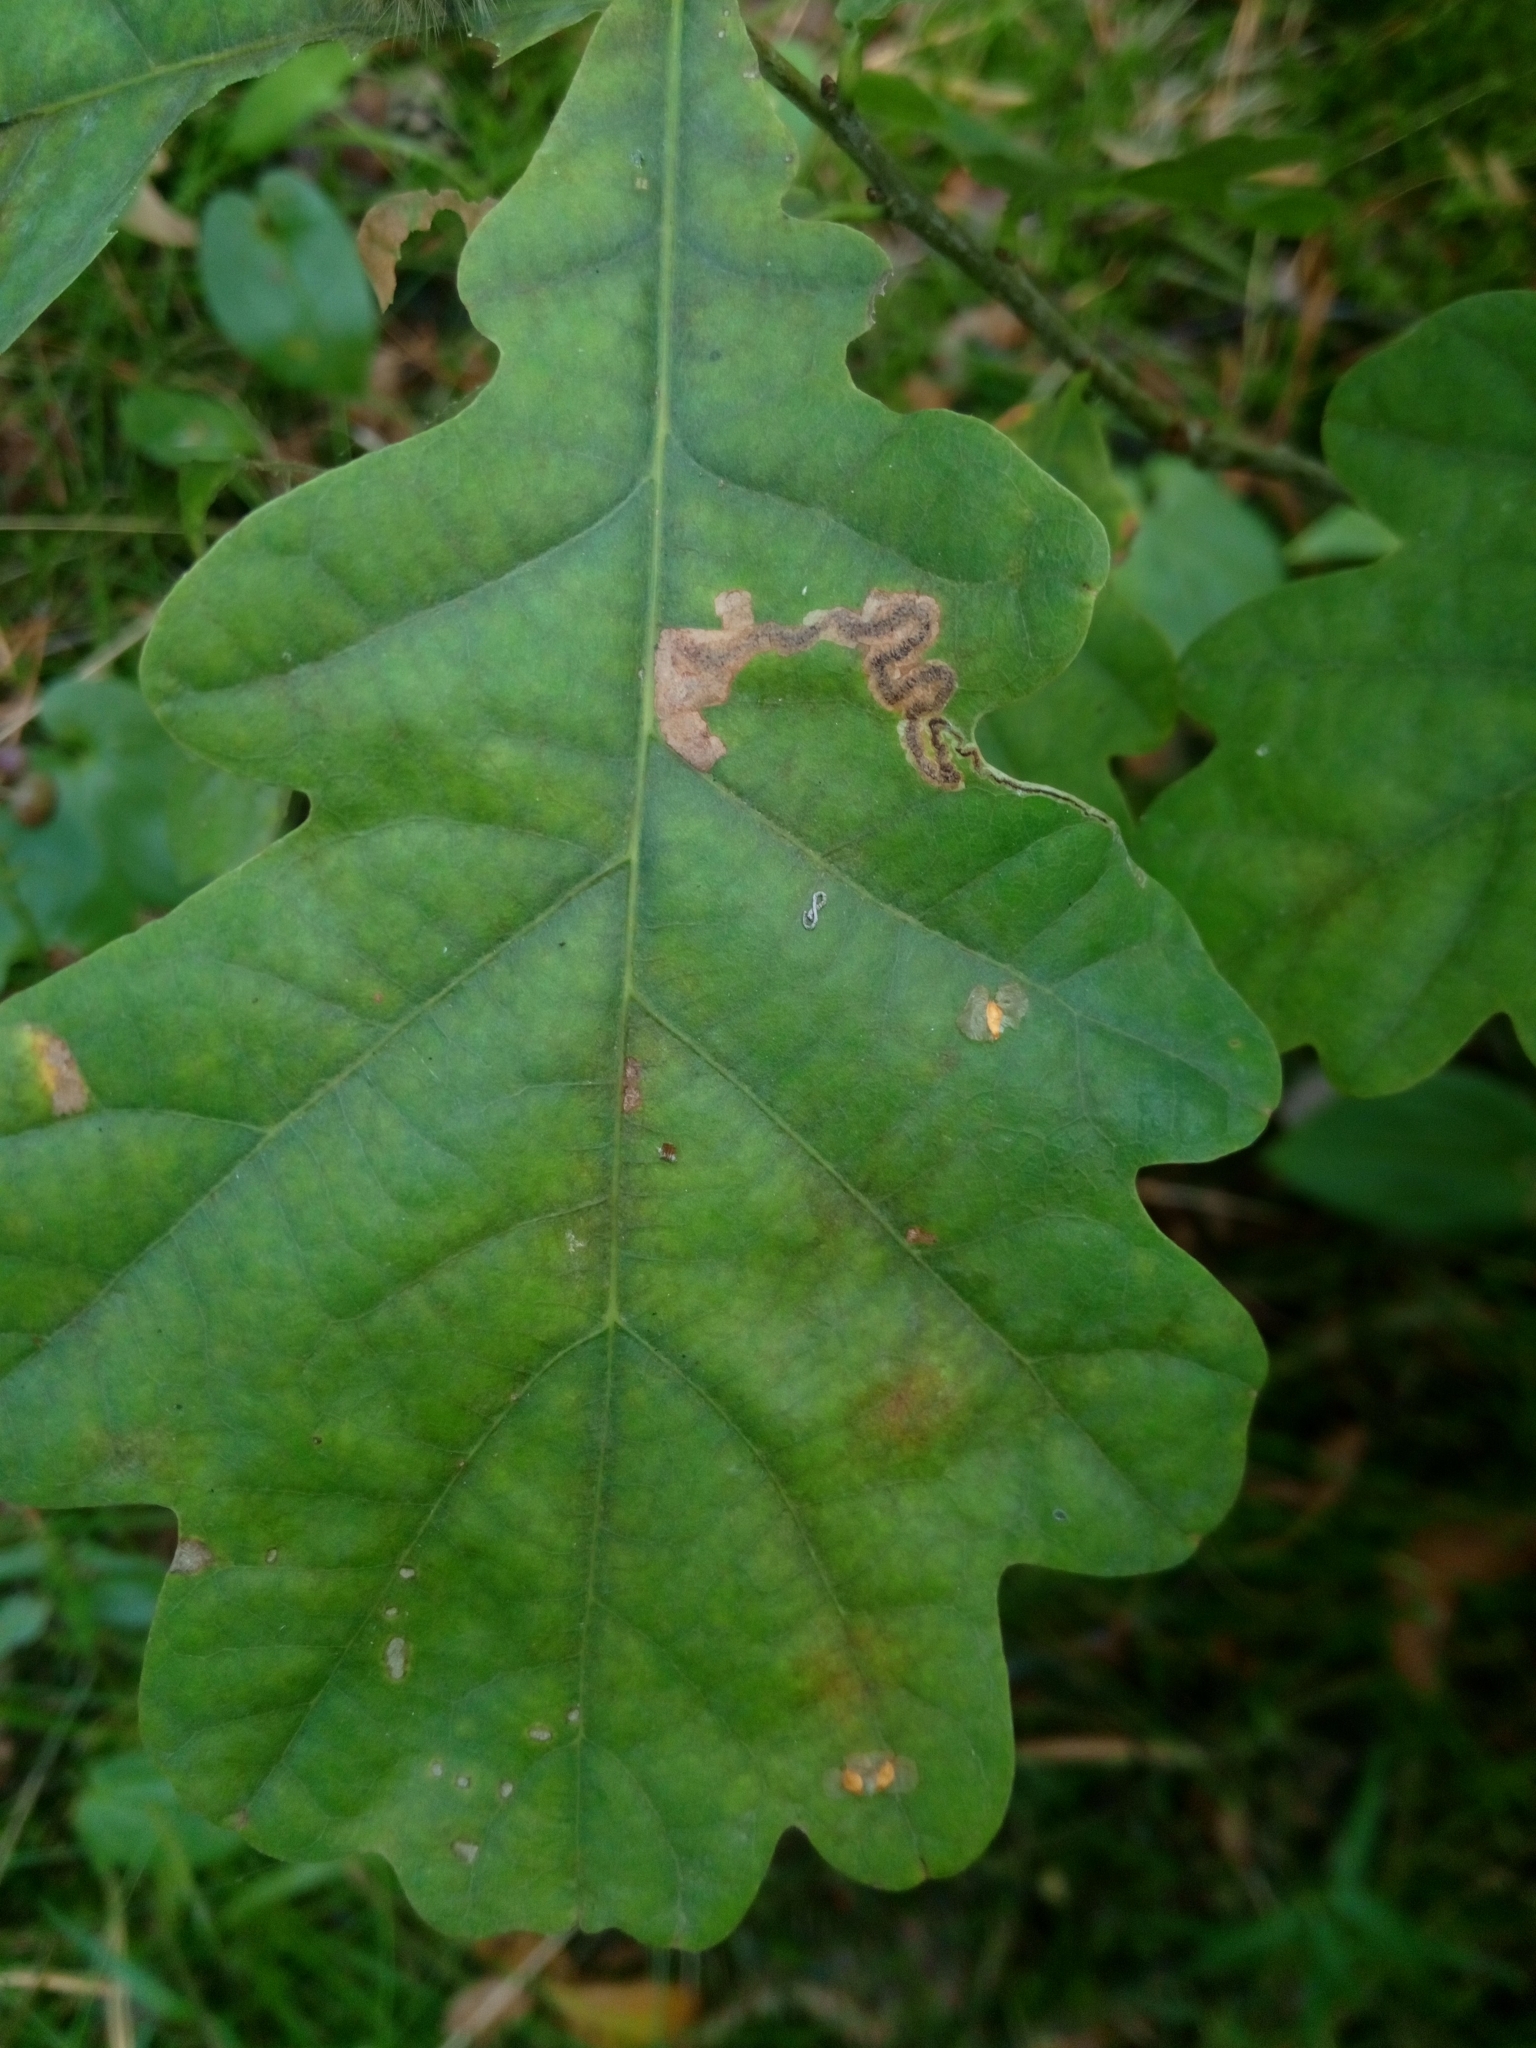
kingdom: Plantae
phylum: Tracheophyta
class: Magnoliopsida
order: Fagales
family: Fagaceae
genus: Quercus
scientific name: Quercus robur
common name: Pedunculate oak
